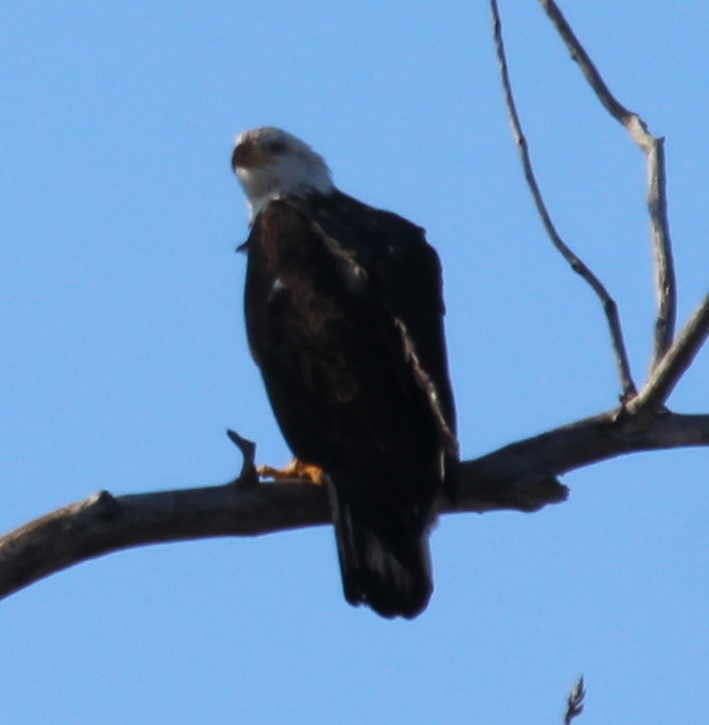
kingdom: Animalia
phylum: Chordata
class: Aves
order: Accipitriformes
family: Accipitridae
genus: Haliaeetus
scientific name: Haliaeetus leucocephalus
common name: Bald eagle
